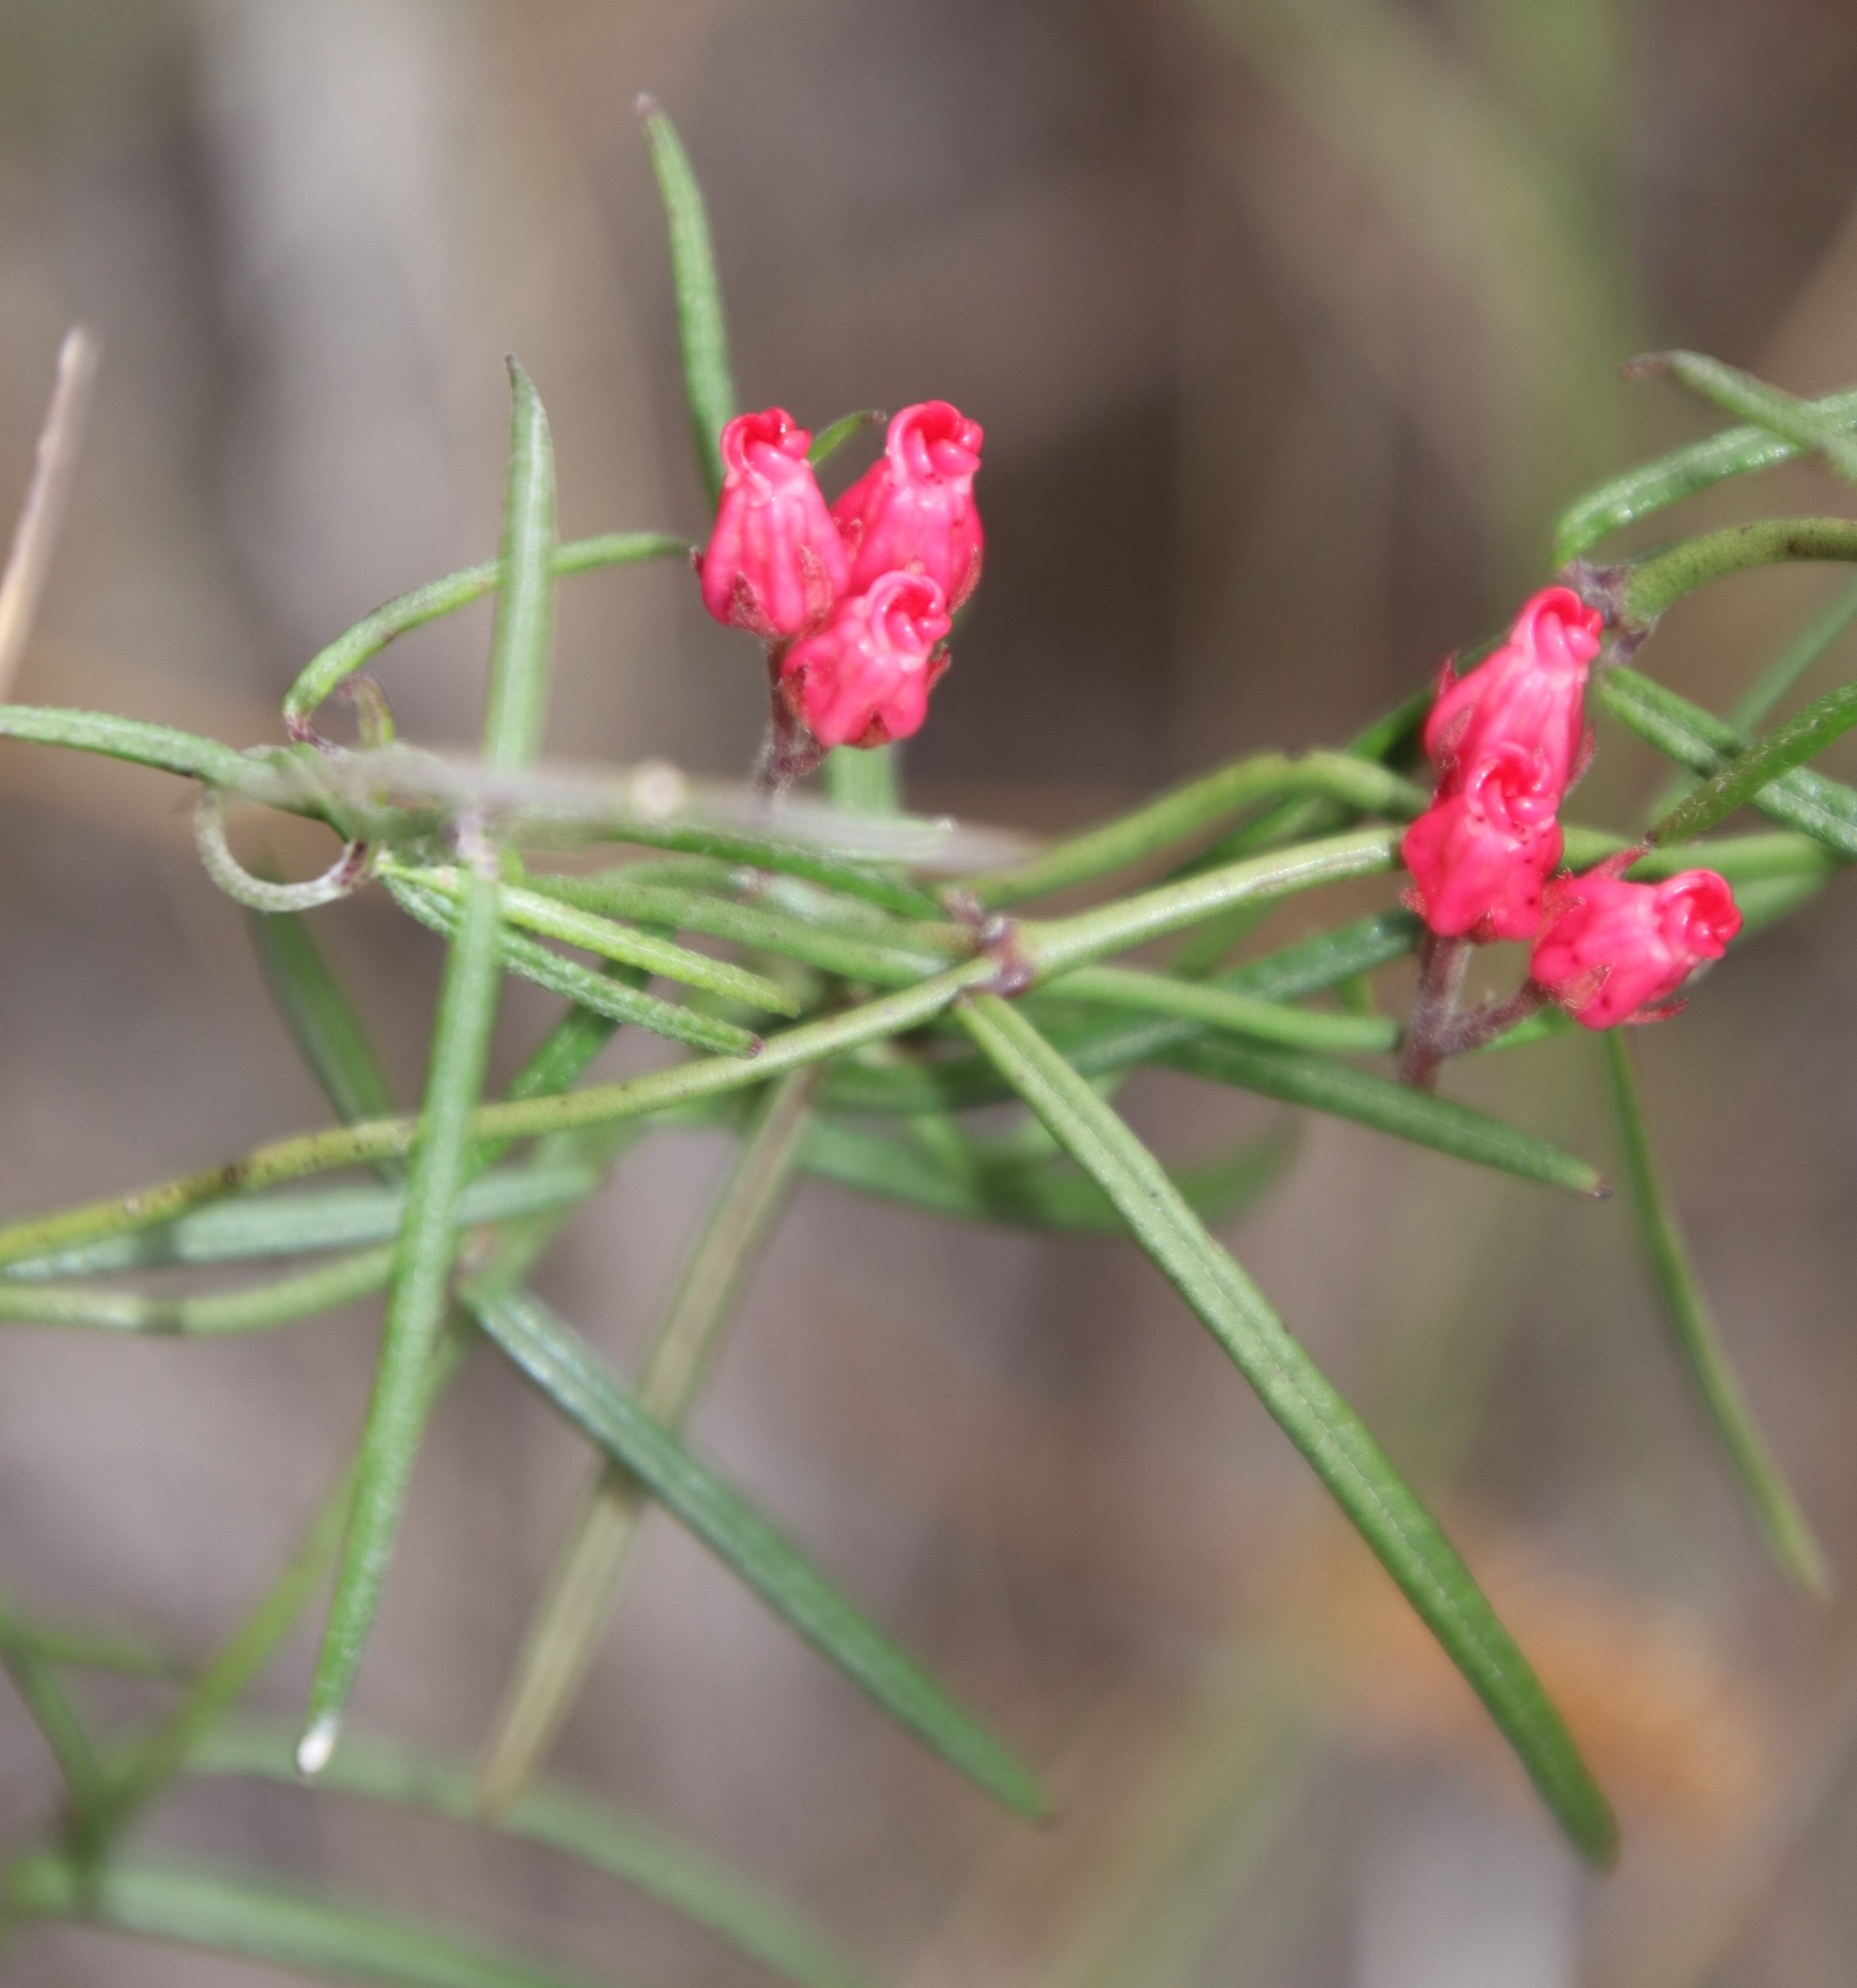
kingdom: Plantae
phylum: Tracheophyta
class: Magnoliopsida
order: Gentianales
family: Apocynaceae
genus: Microloma
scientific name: Microloma tenuifolium
